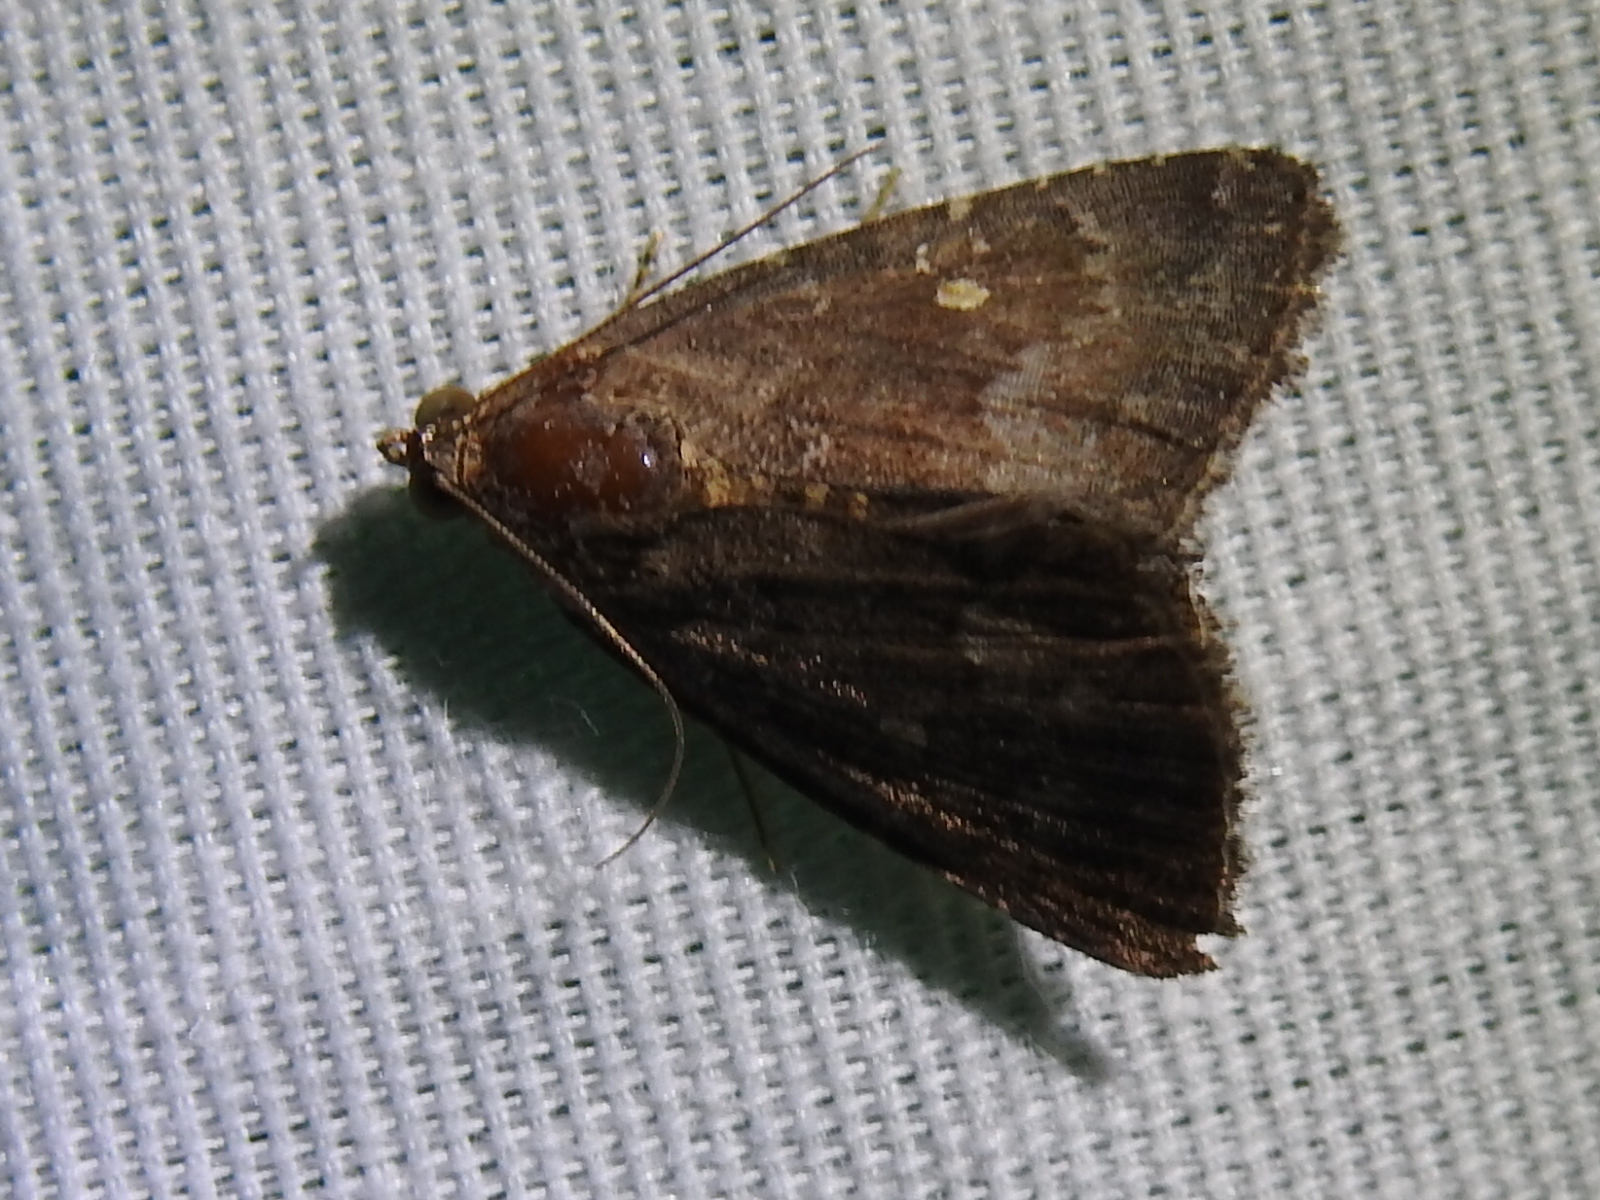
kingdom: Animalia
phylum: Arthropoda
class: Insecta
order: Lepidoptera
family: Noctuidae
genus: Amyna
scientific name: Amyna stricta
